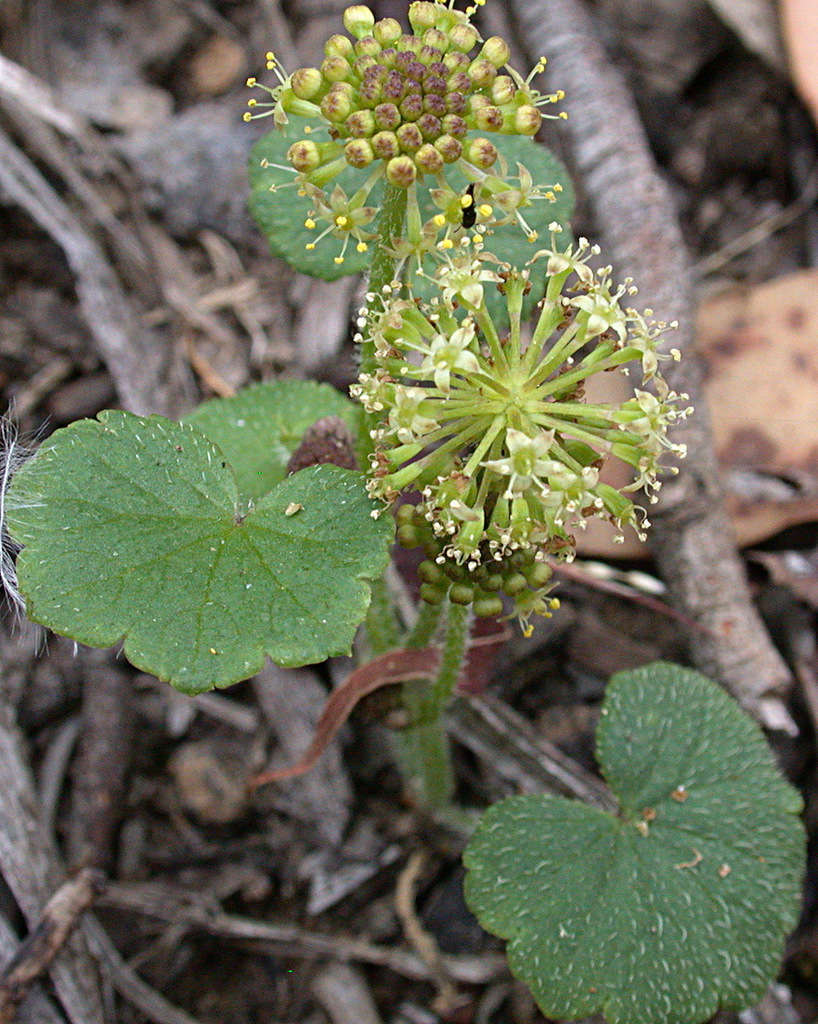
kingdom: Plantae
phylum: Tracheophyta
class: Magnoliopsida
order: Apiales
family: Araliaceae
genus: Hydrocotyle
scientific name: Hydrocotyle laxiflora
